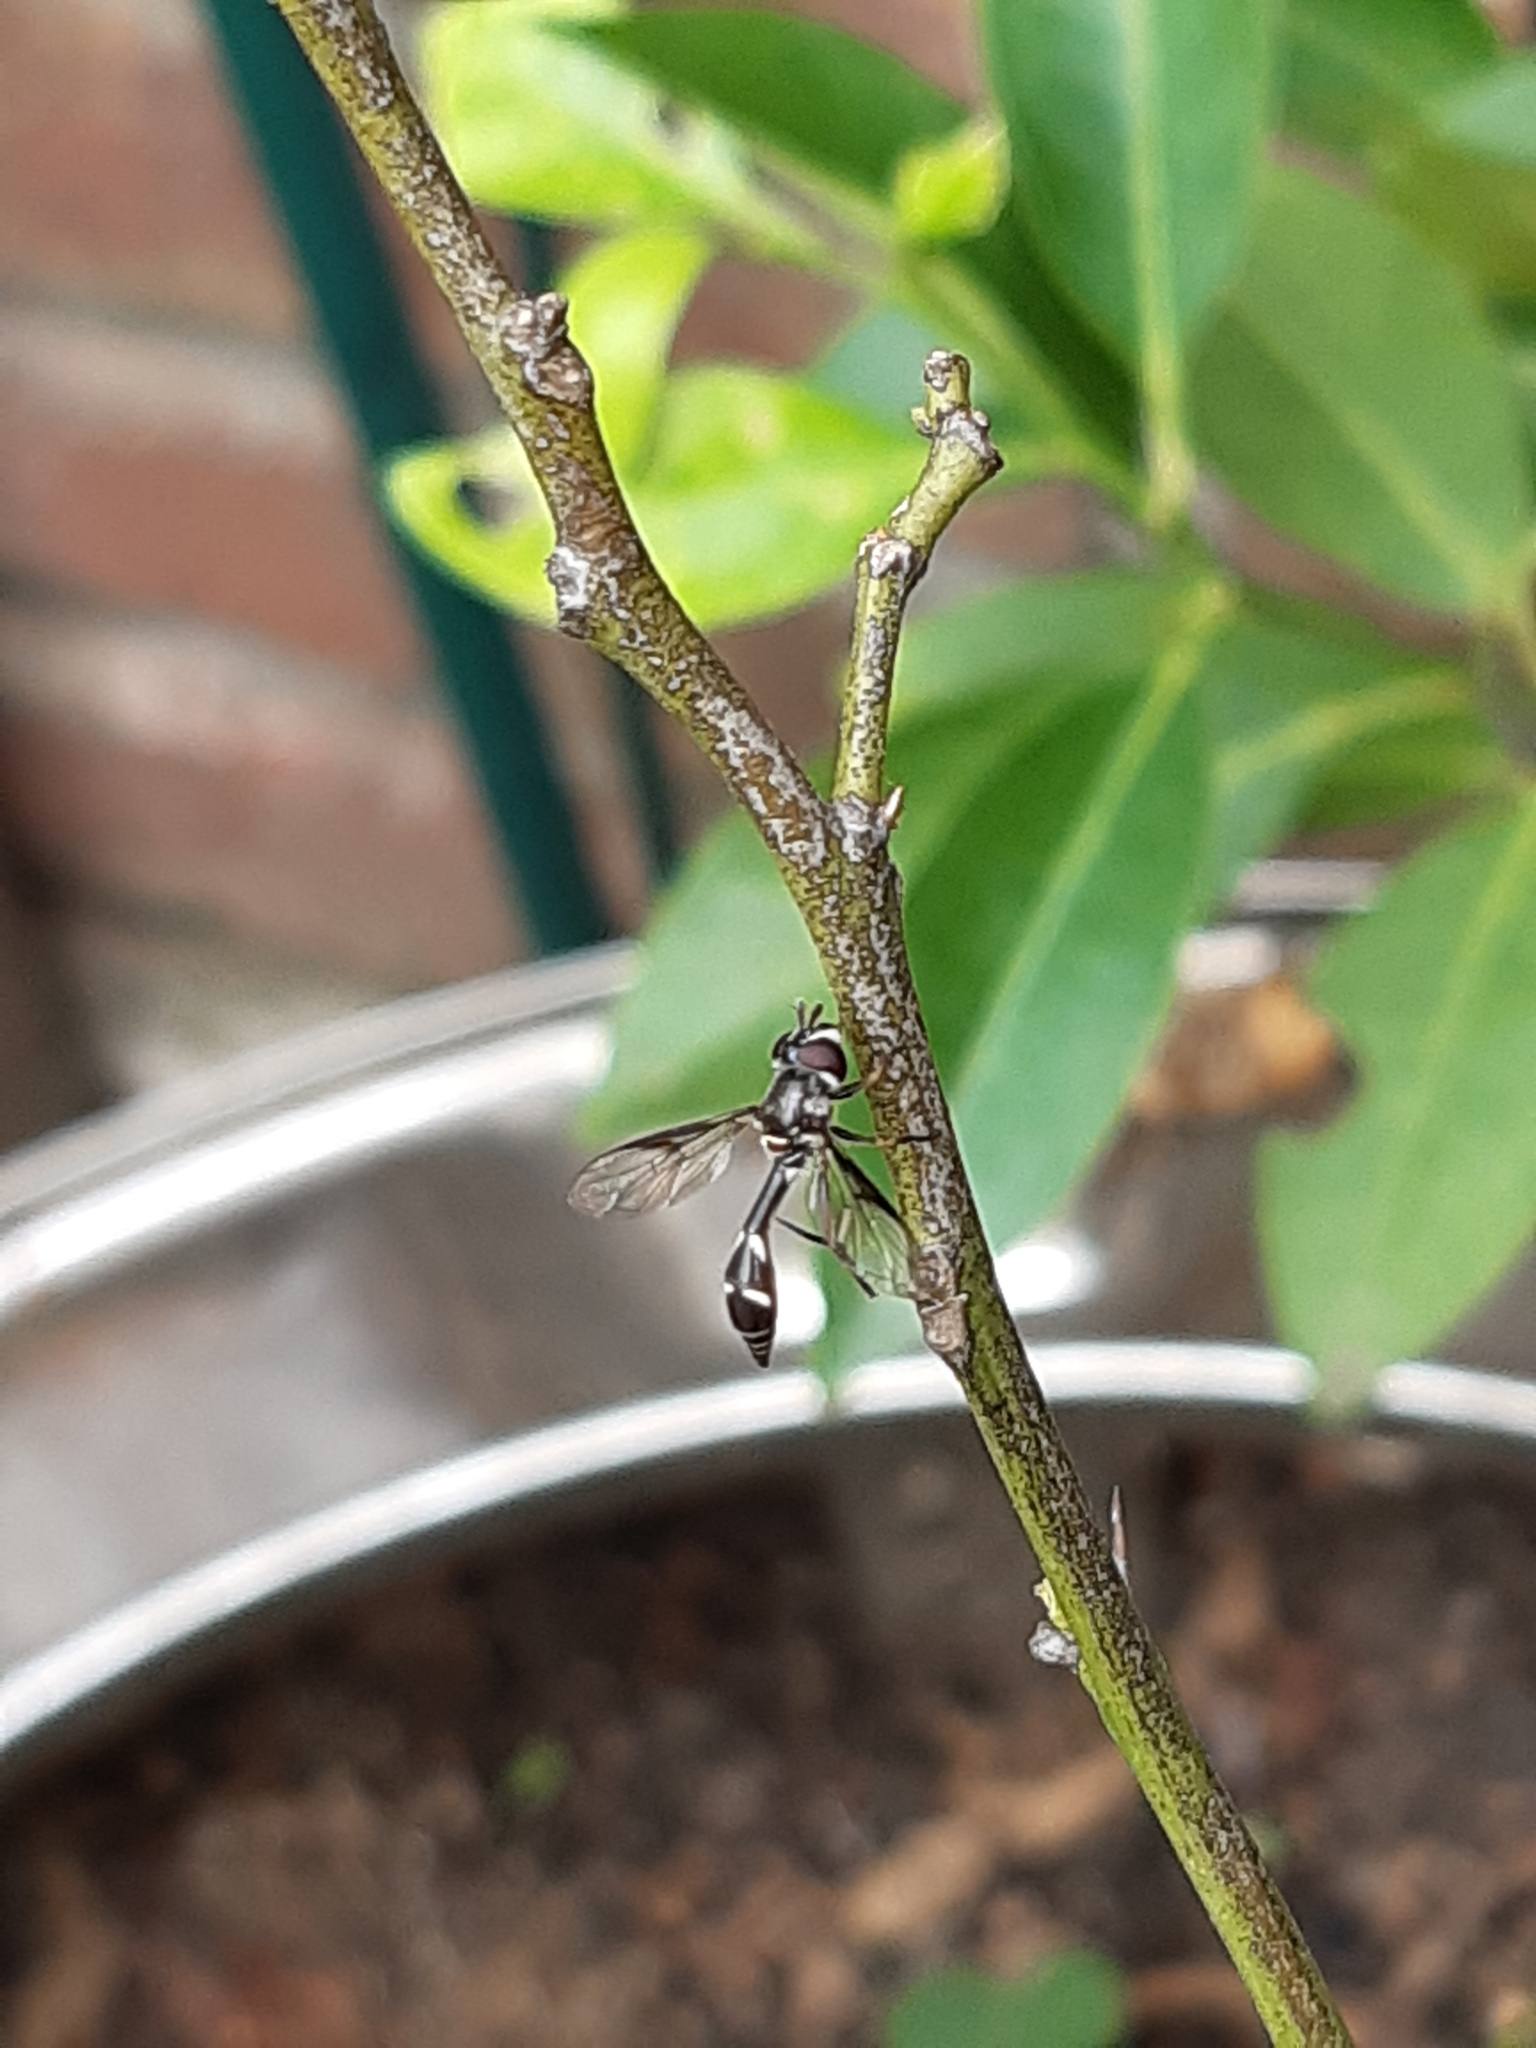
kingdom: Animalia
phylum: Arthropoda
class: Insecta
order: Diptera
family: Syrphidae
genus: Dioprosopa
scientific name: Dioprosopa clavatus
